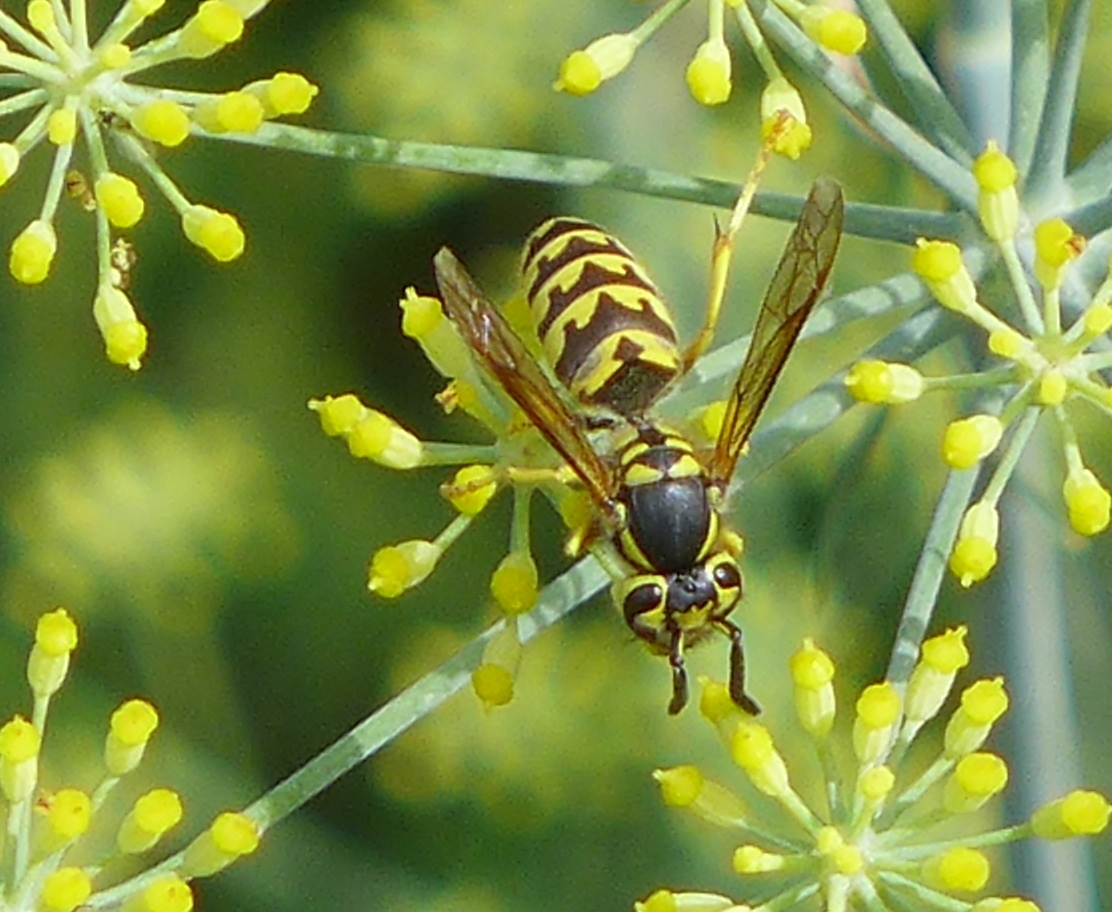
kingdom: Animalia
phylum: Arthropoda
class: Insecta
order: Hymenoptera
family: Vespidae
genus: Vespula
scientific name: Vespula pensylvanica
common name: Western yellowjacket
